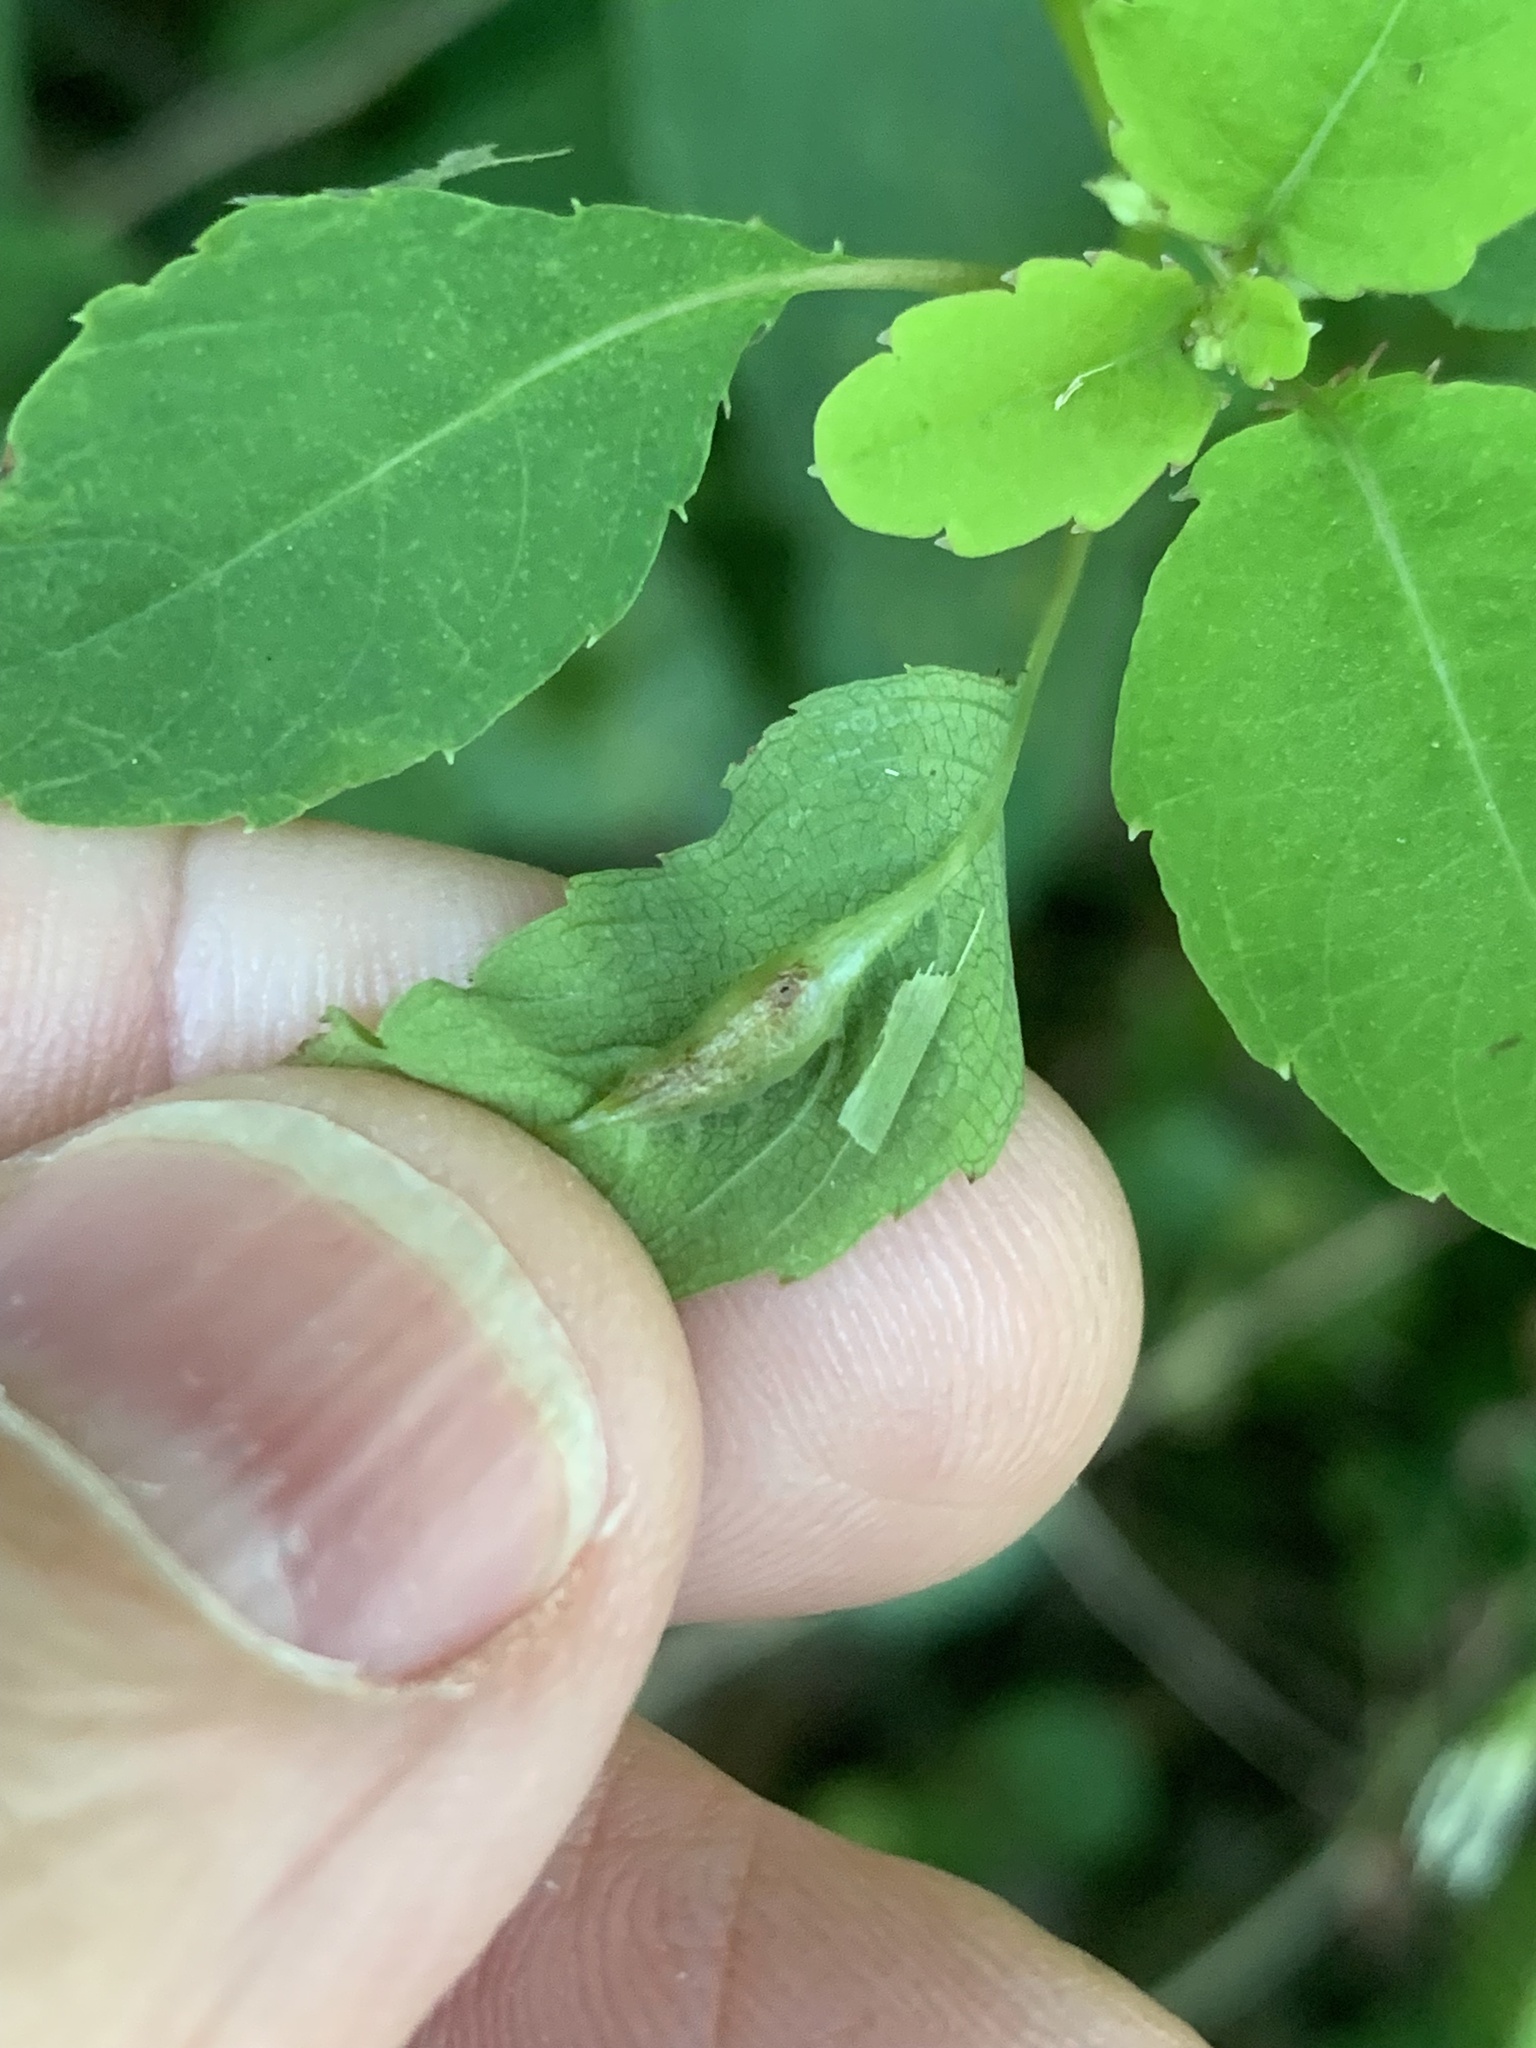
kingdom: Animalia
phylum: Arthropoda
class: Insecta
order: Diptera
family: Cecidomyiidae
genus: Neolasioptera
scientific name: Neolasioptera impatientifolia
